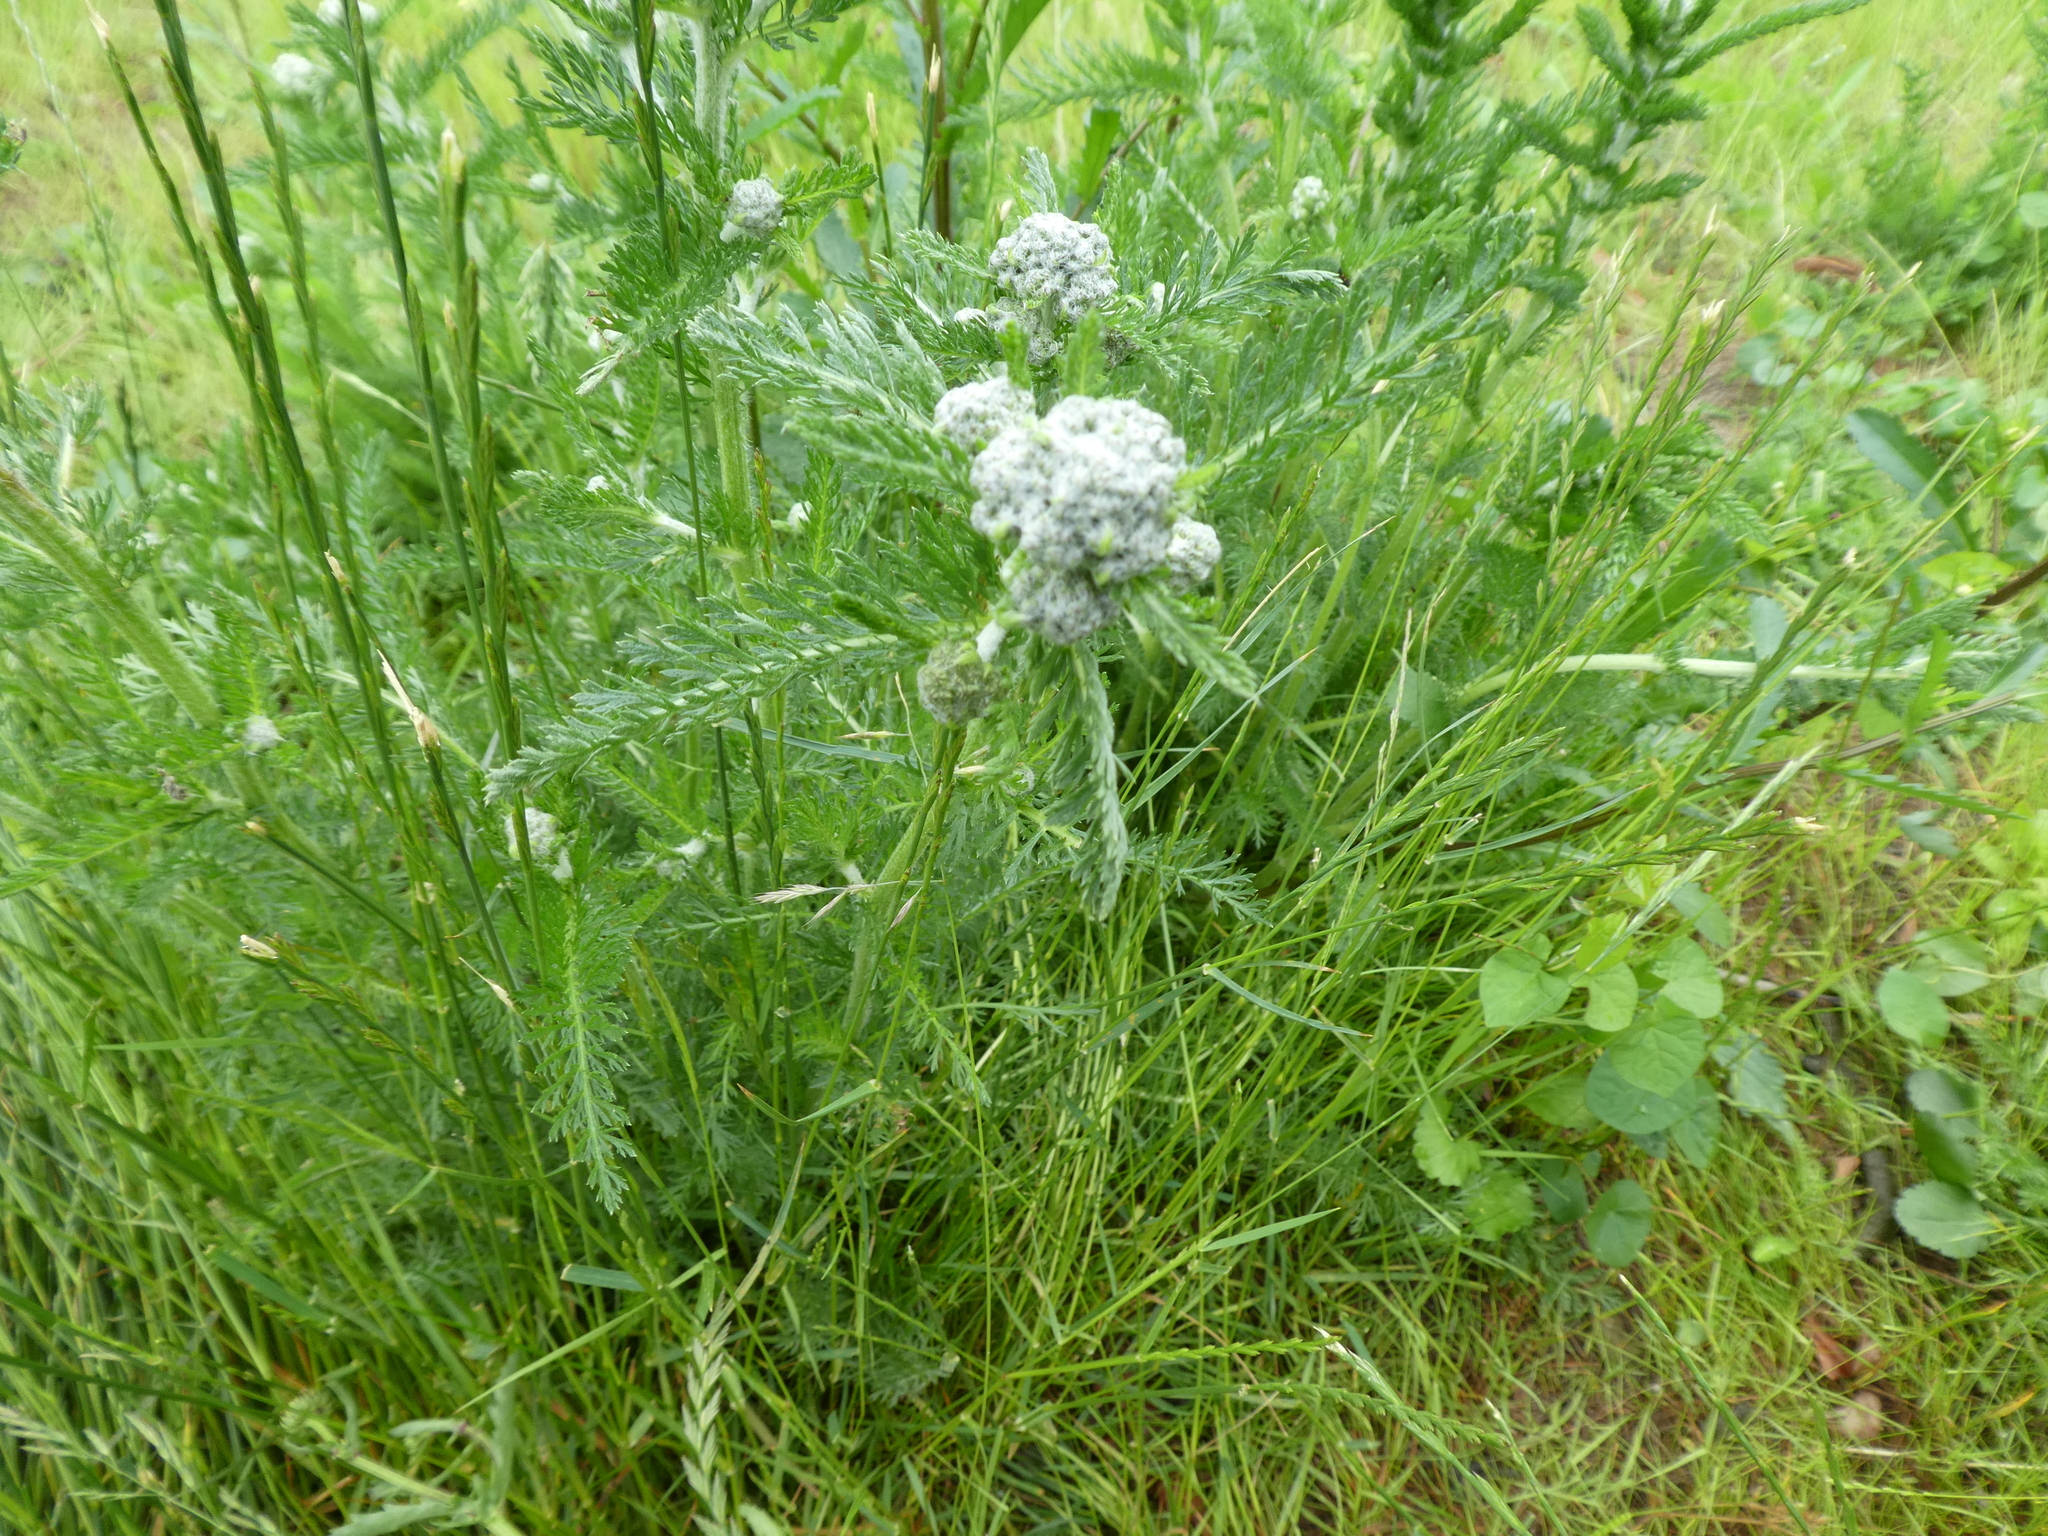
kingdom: Plantae
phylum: Tracheophyta
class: Magnoliopsida
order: Asterales
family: Asteraceae
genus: Achillea
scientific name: Achillea millefolium
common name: Yarrow
